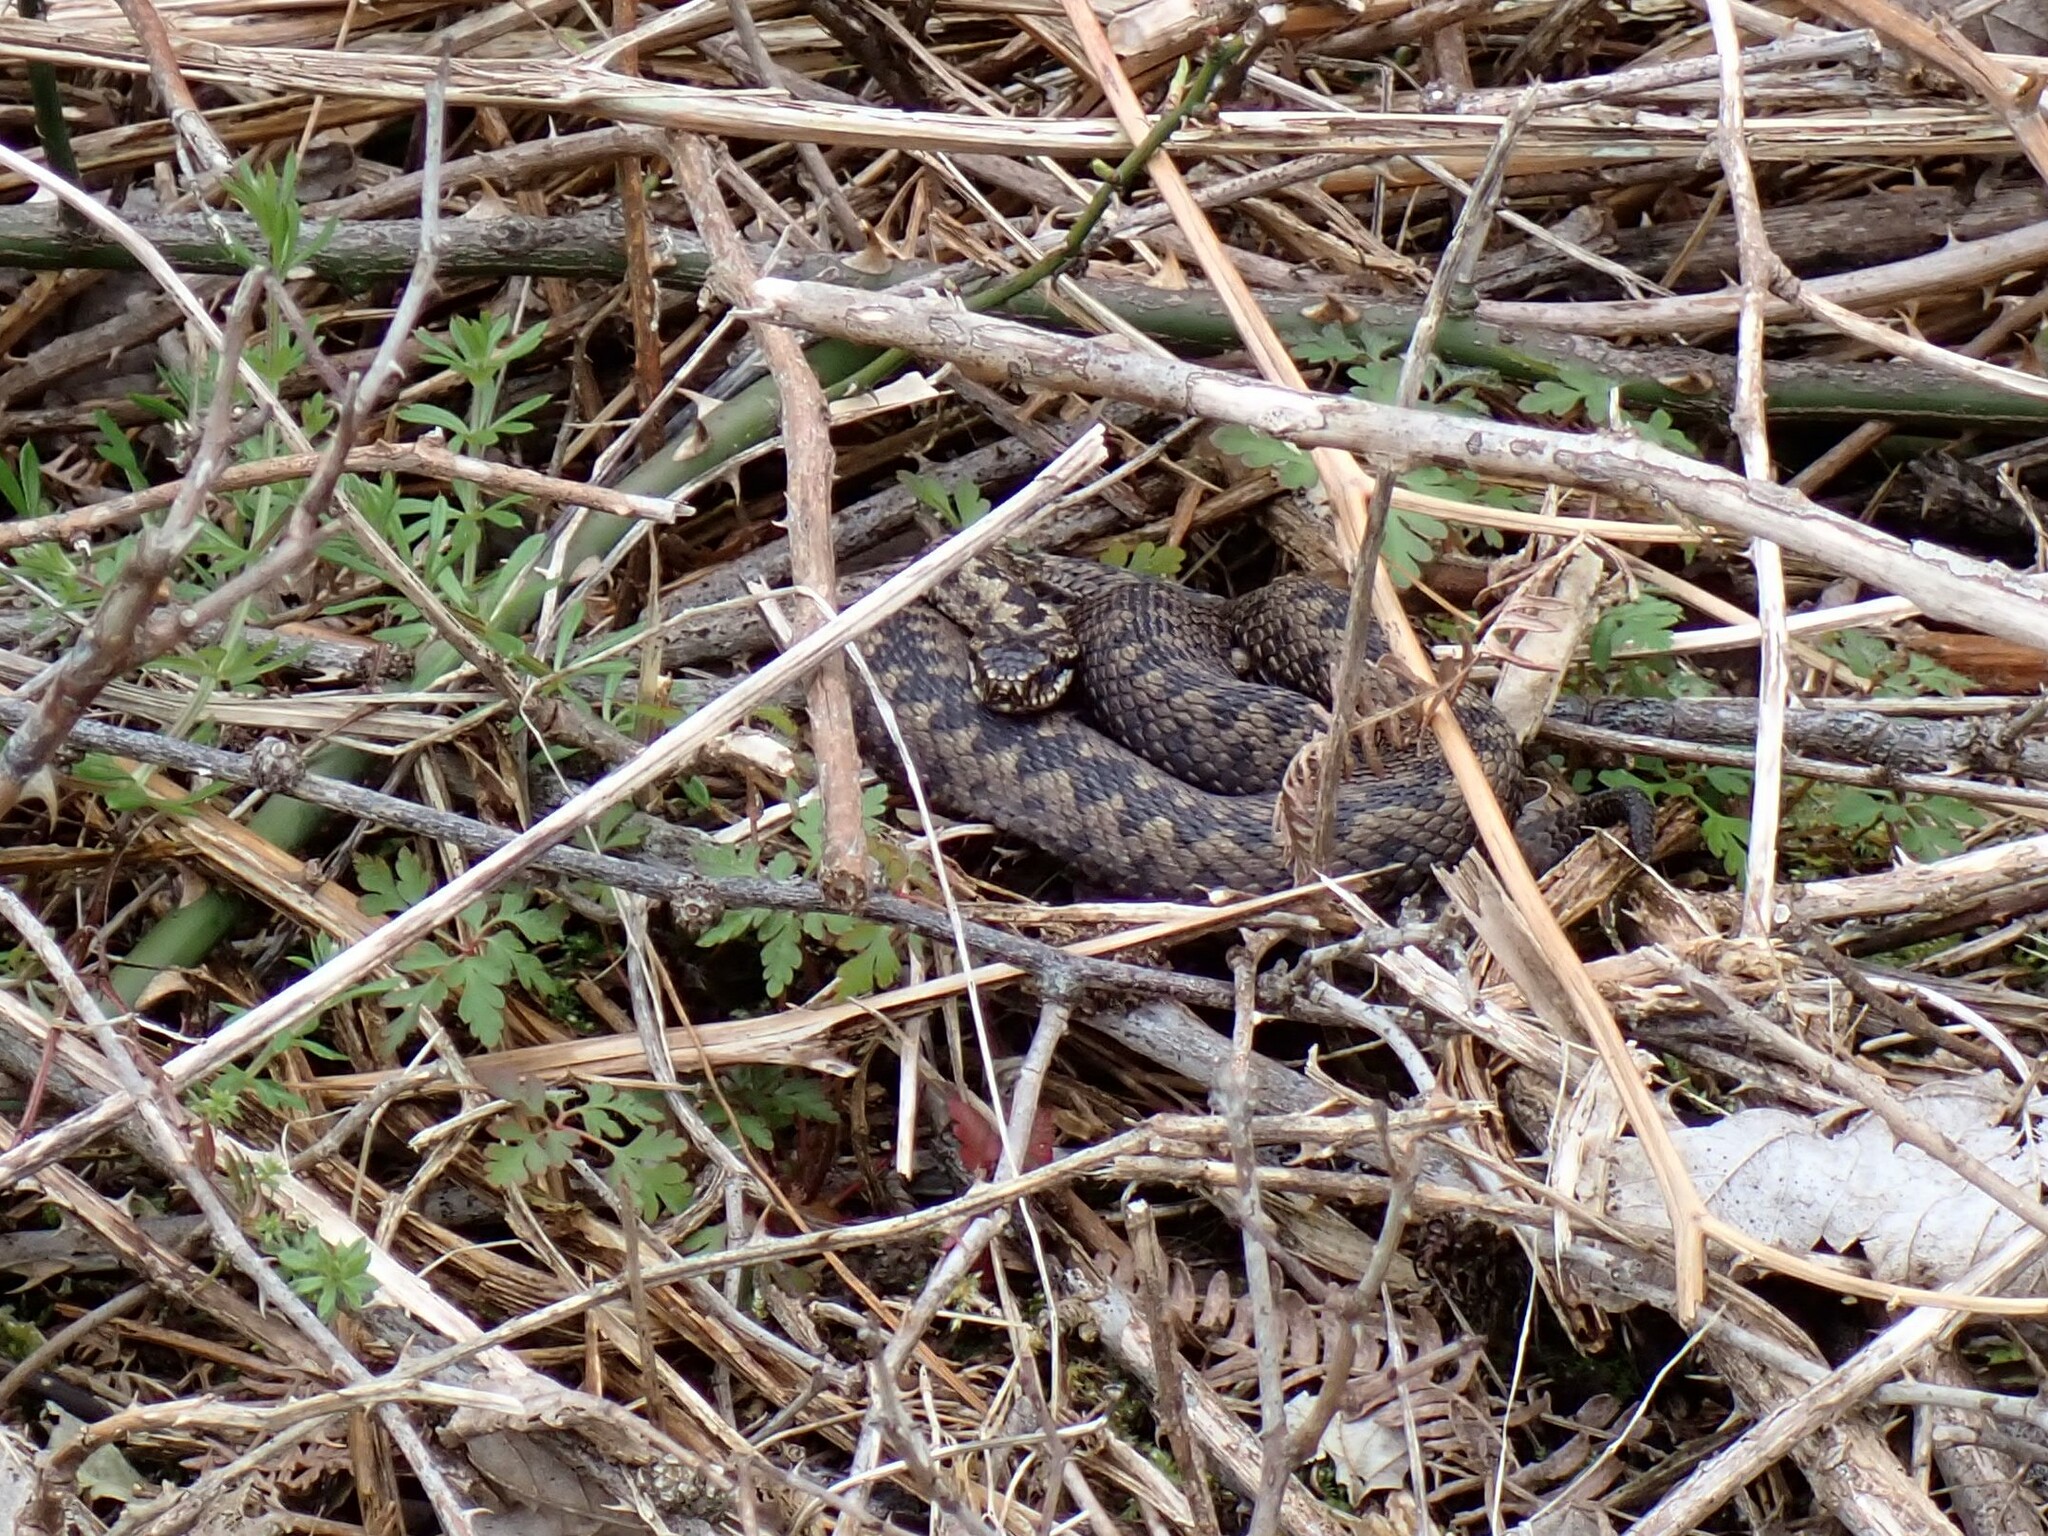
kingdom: Animalia
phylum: Chordata
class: Squamata
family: Viperidae
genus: Vipera
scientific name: Vipera berus
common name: Adder
